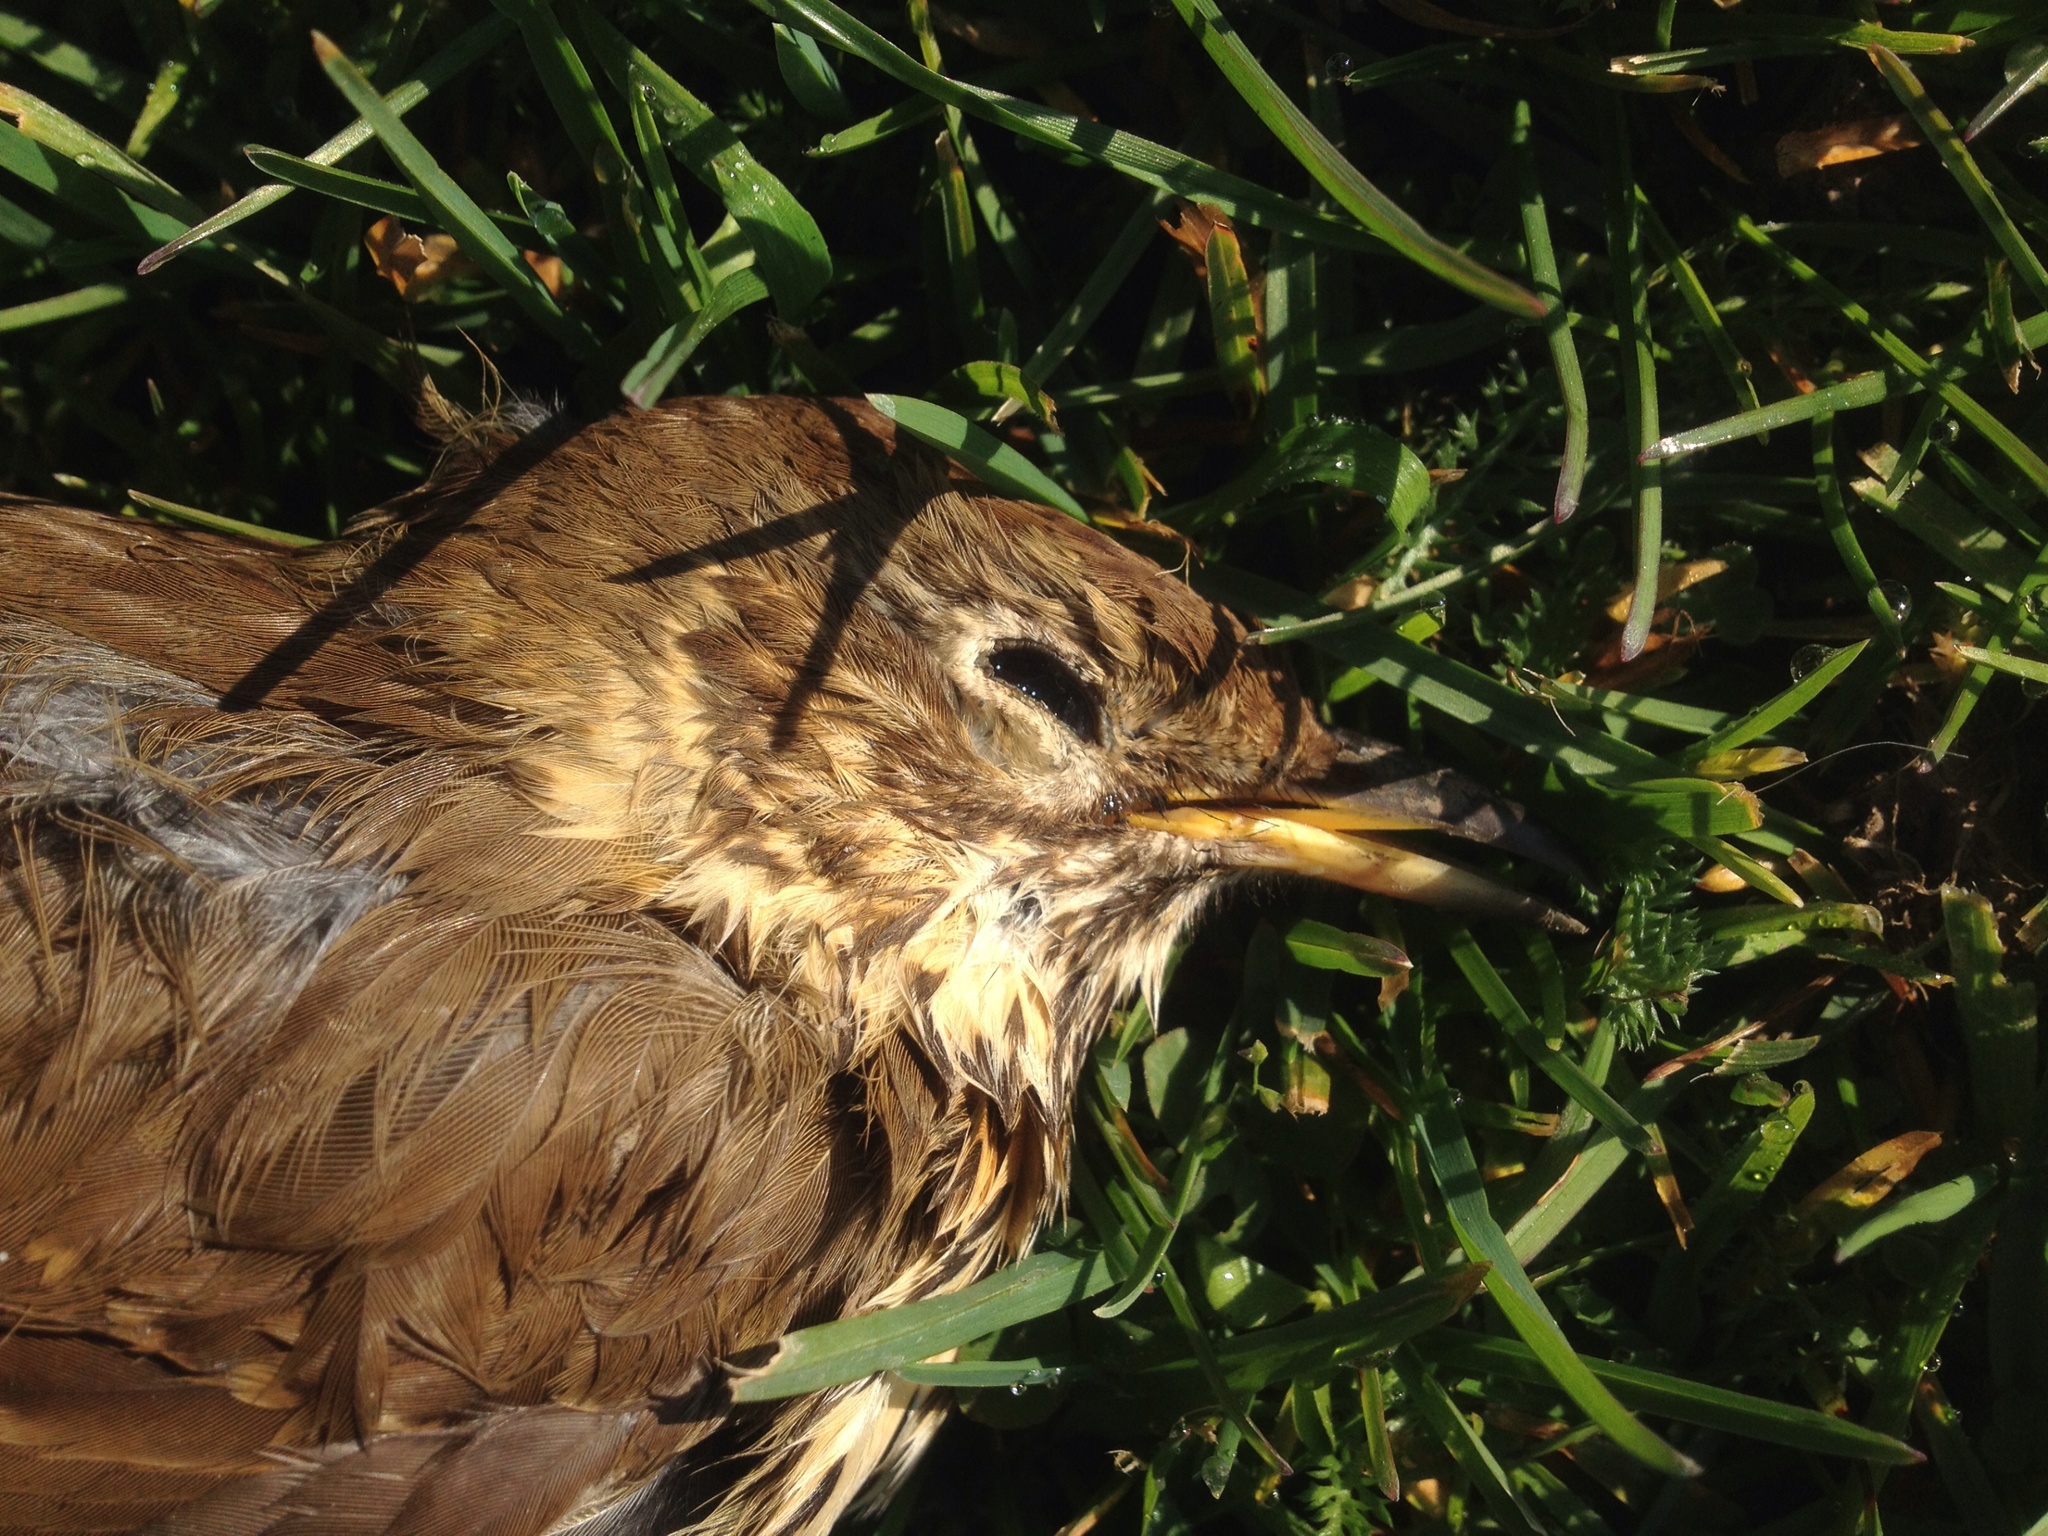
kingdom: Animalia
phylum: Chordata
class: Aves
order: Passeriformes
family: Turdidae
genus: Turdus
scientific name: Turdus philomelos
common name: Song thrush
